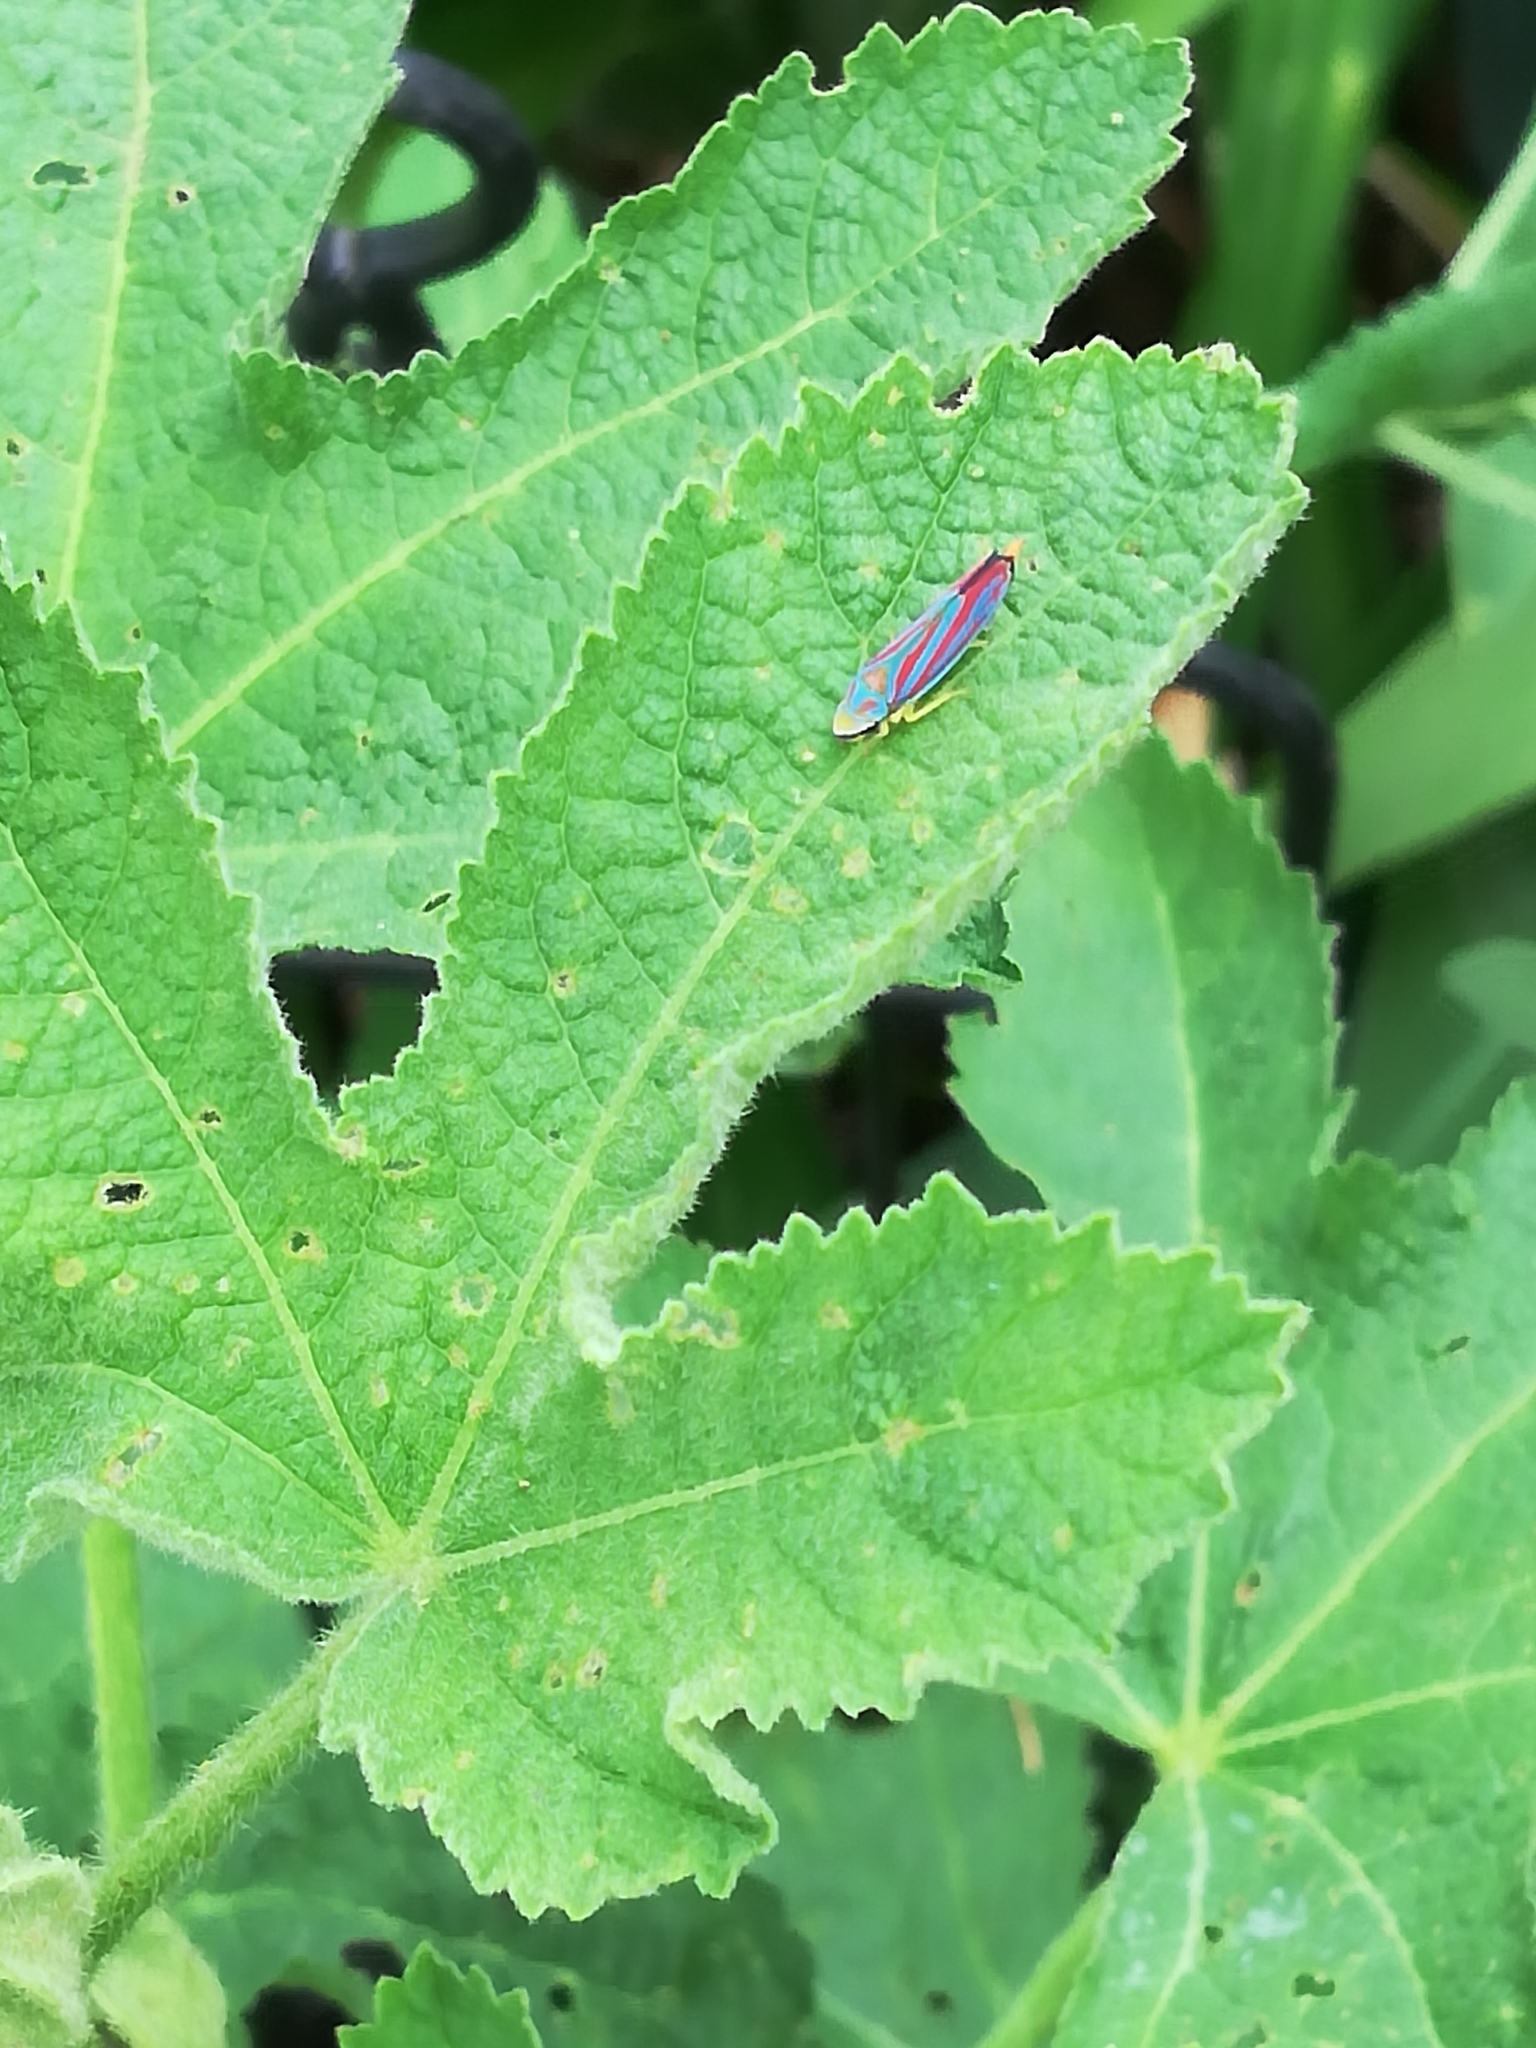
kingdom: Animalia
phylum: Arthropoda
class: Insecta
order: Hemiptera
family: Cicadellidae
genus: Graphocephala
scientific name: Graphocephala coccinea
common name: Candy-striped leafhopper
